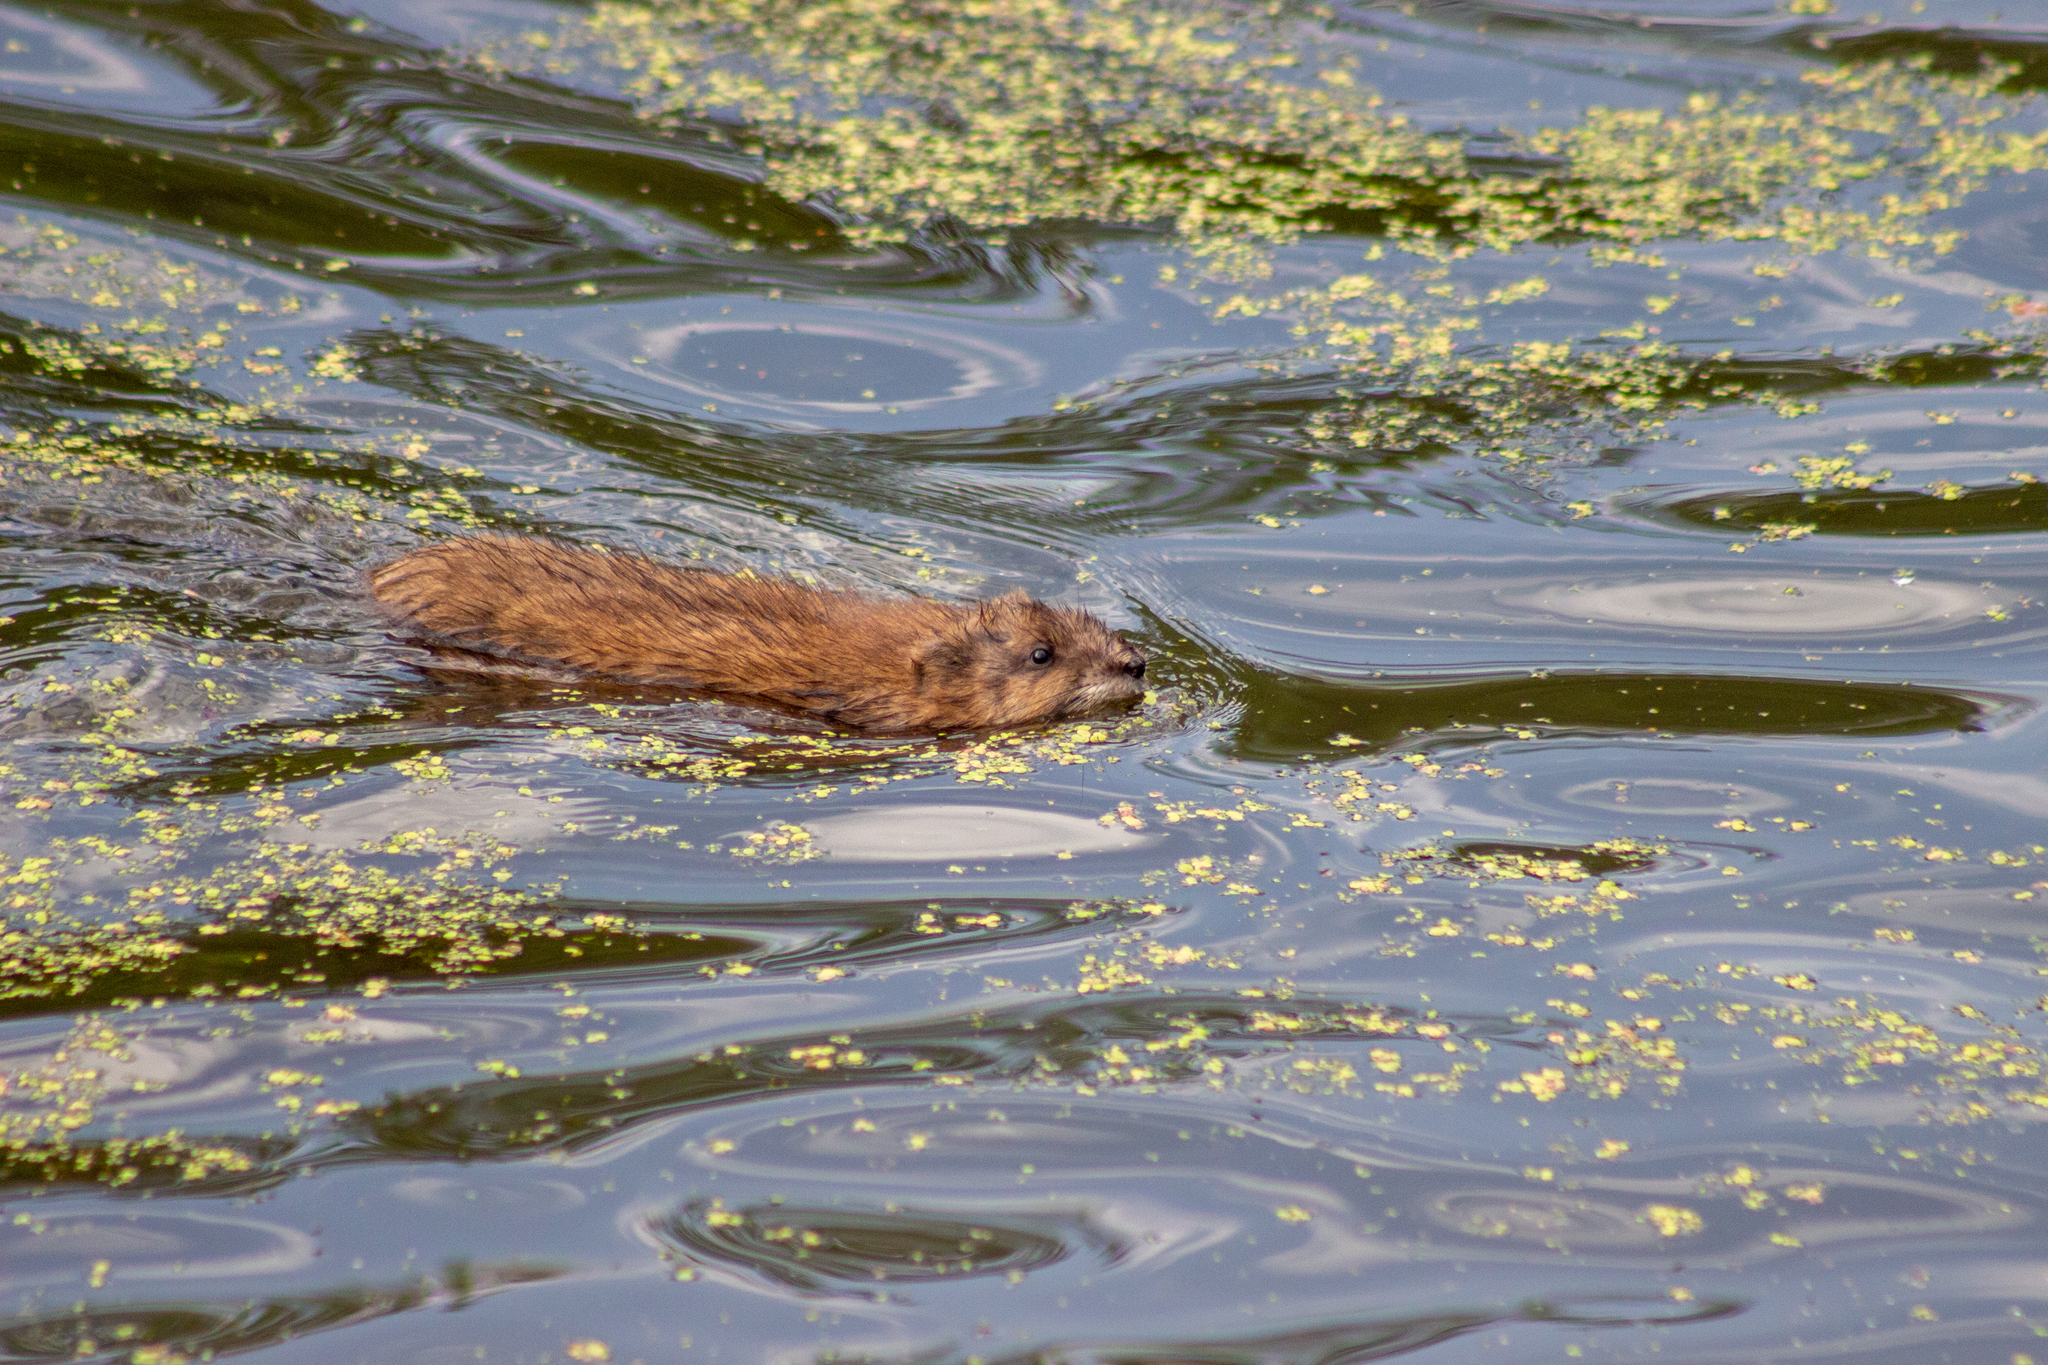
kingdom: Animalia
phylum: Chordata
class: Mammalia
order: Rodentia
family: Cricetidae
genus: Ondatra
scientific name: Ondatra zibethicus
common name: Muskrat
